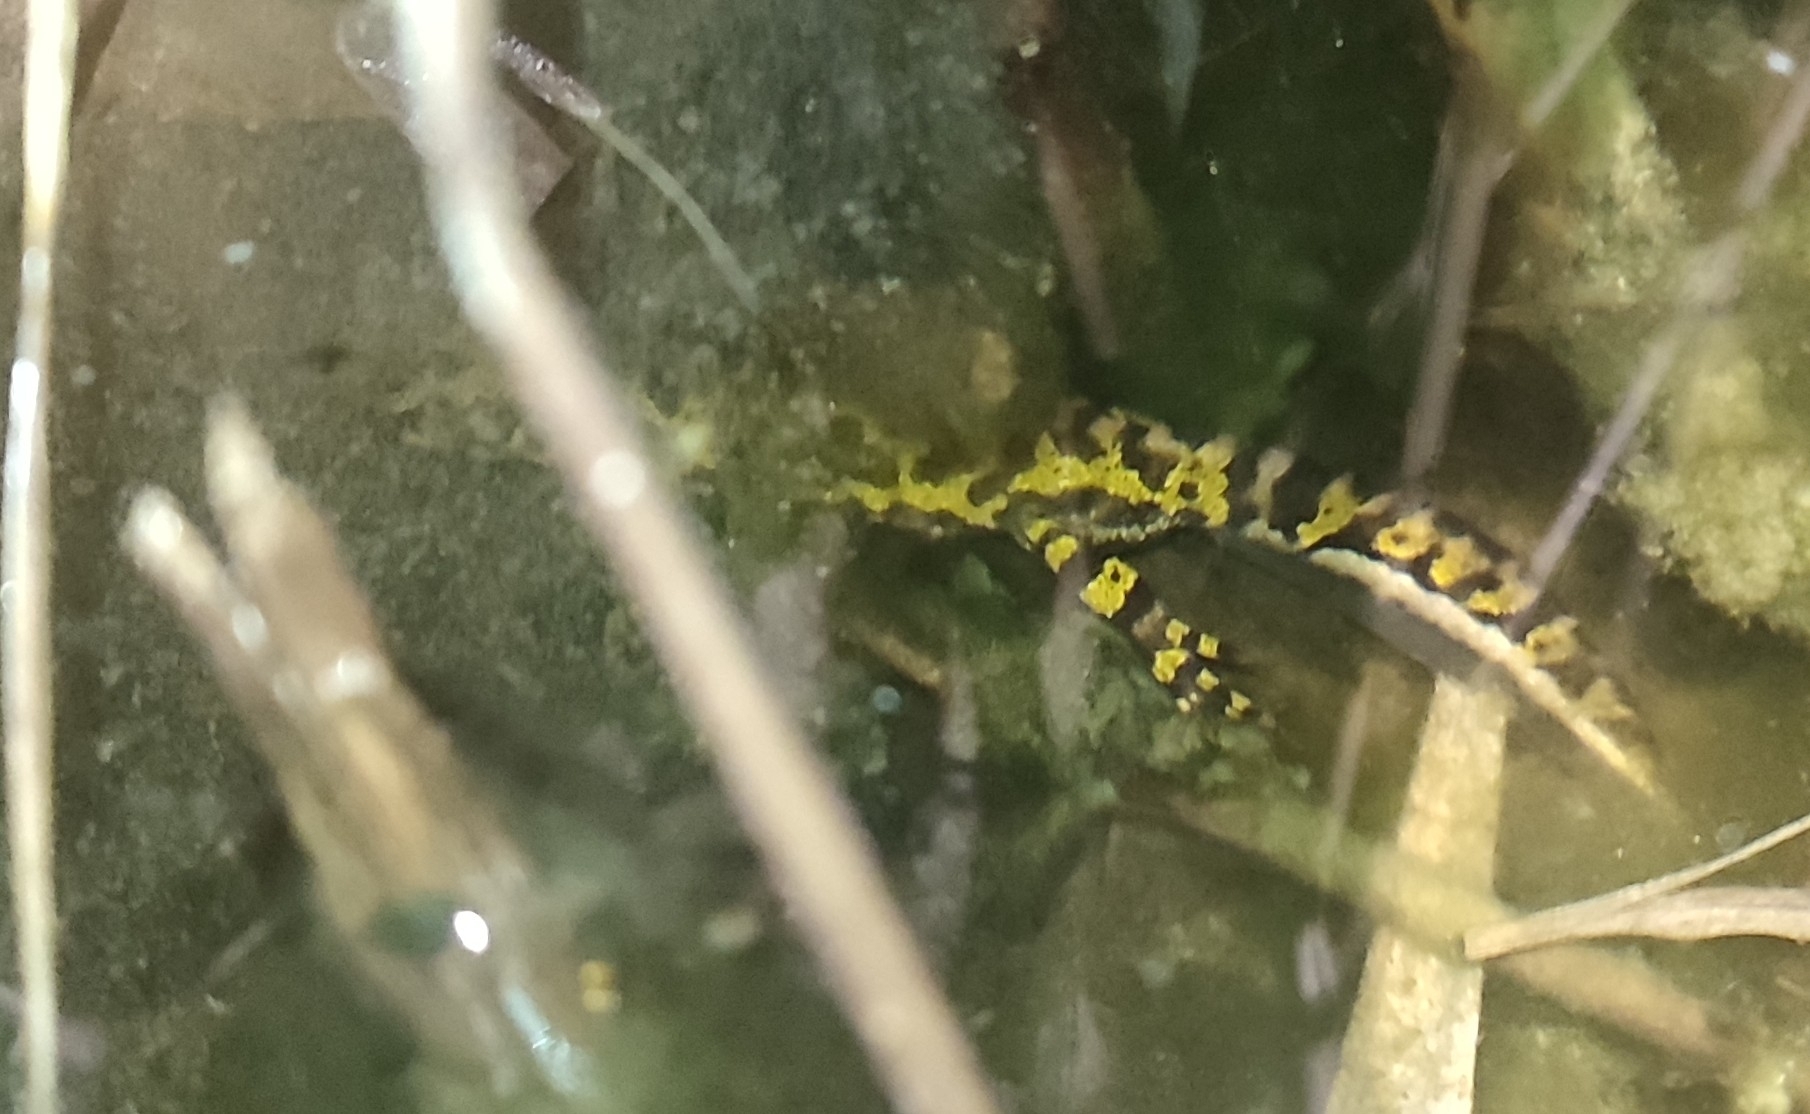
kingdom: Animalia
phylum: Chordata
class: Amphibia
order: Caudata
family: Salamandridae
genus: Triturus
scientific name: Triturus marmoratus
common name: Marbled newt
